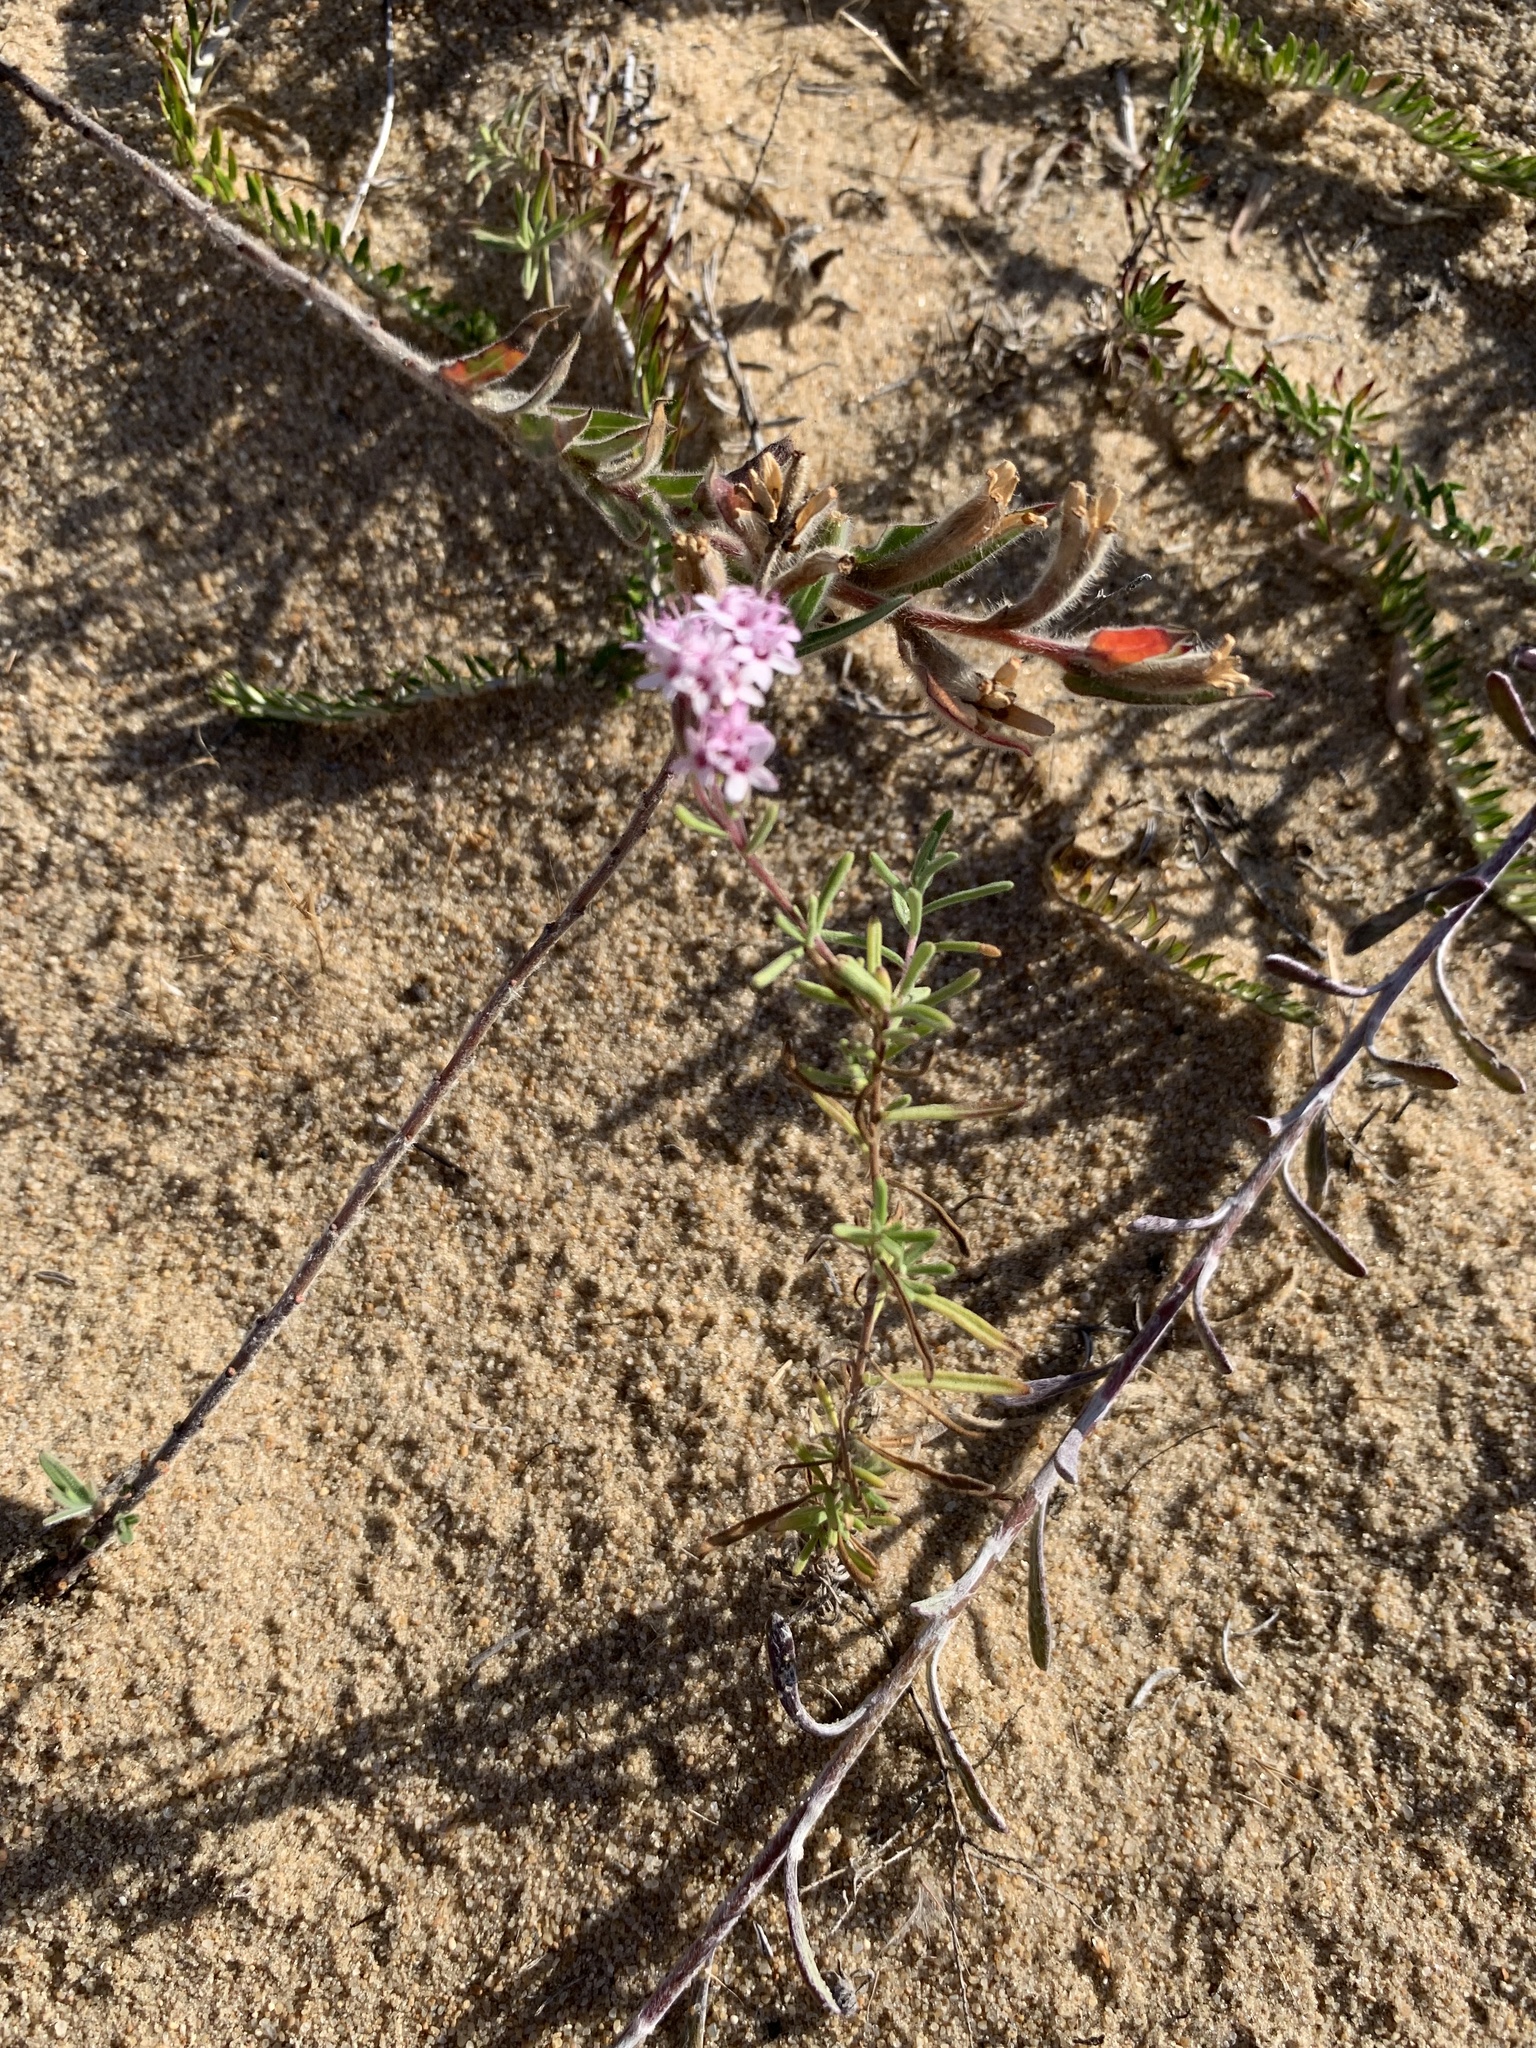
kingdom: Plantae
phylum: Tracheophyta
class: Magnoliopsida
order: Asterales
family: Asteraceae
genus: Stevia
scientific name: Stevia satureifolia
